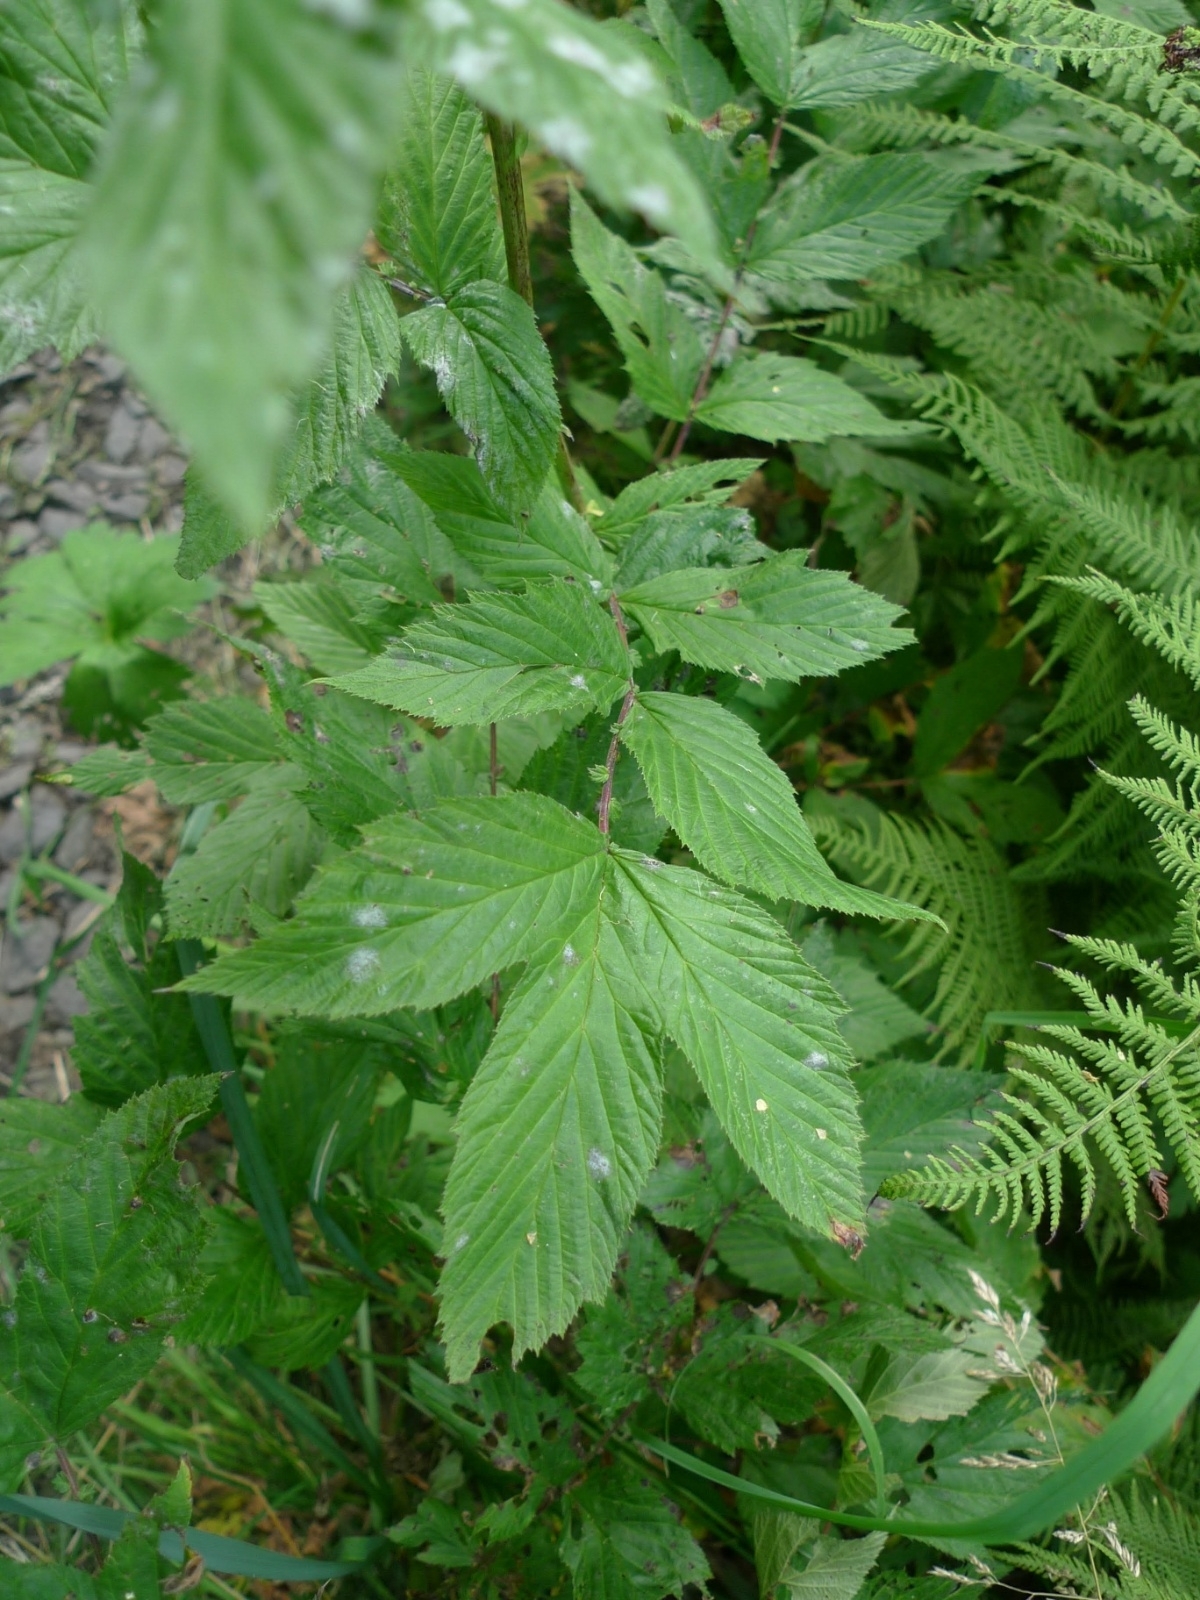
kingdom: Plantae
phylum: Tracheophyta
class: Magnoliopsida
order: Rosales
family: Rosaceae
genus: Filipendula
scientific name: Filipendula ulmaria
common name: Meadowsweet
